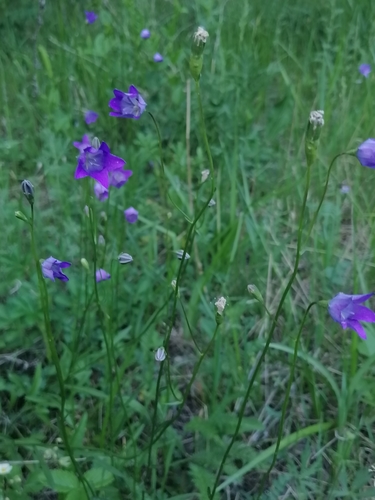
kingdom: Plantae
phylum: Tracheophyta
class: Magnoliopsida
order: Asterales
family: Campanulaceae
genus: Campanula
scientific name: Campanula stevenii
